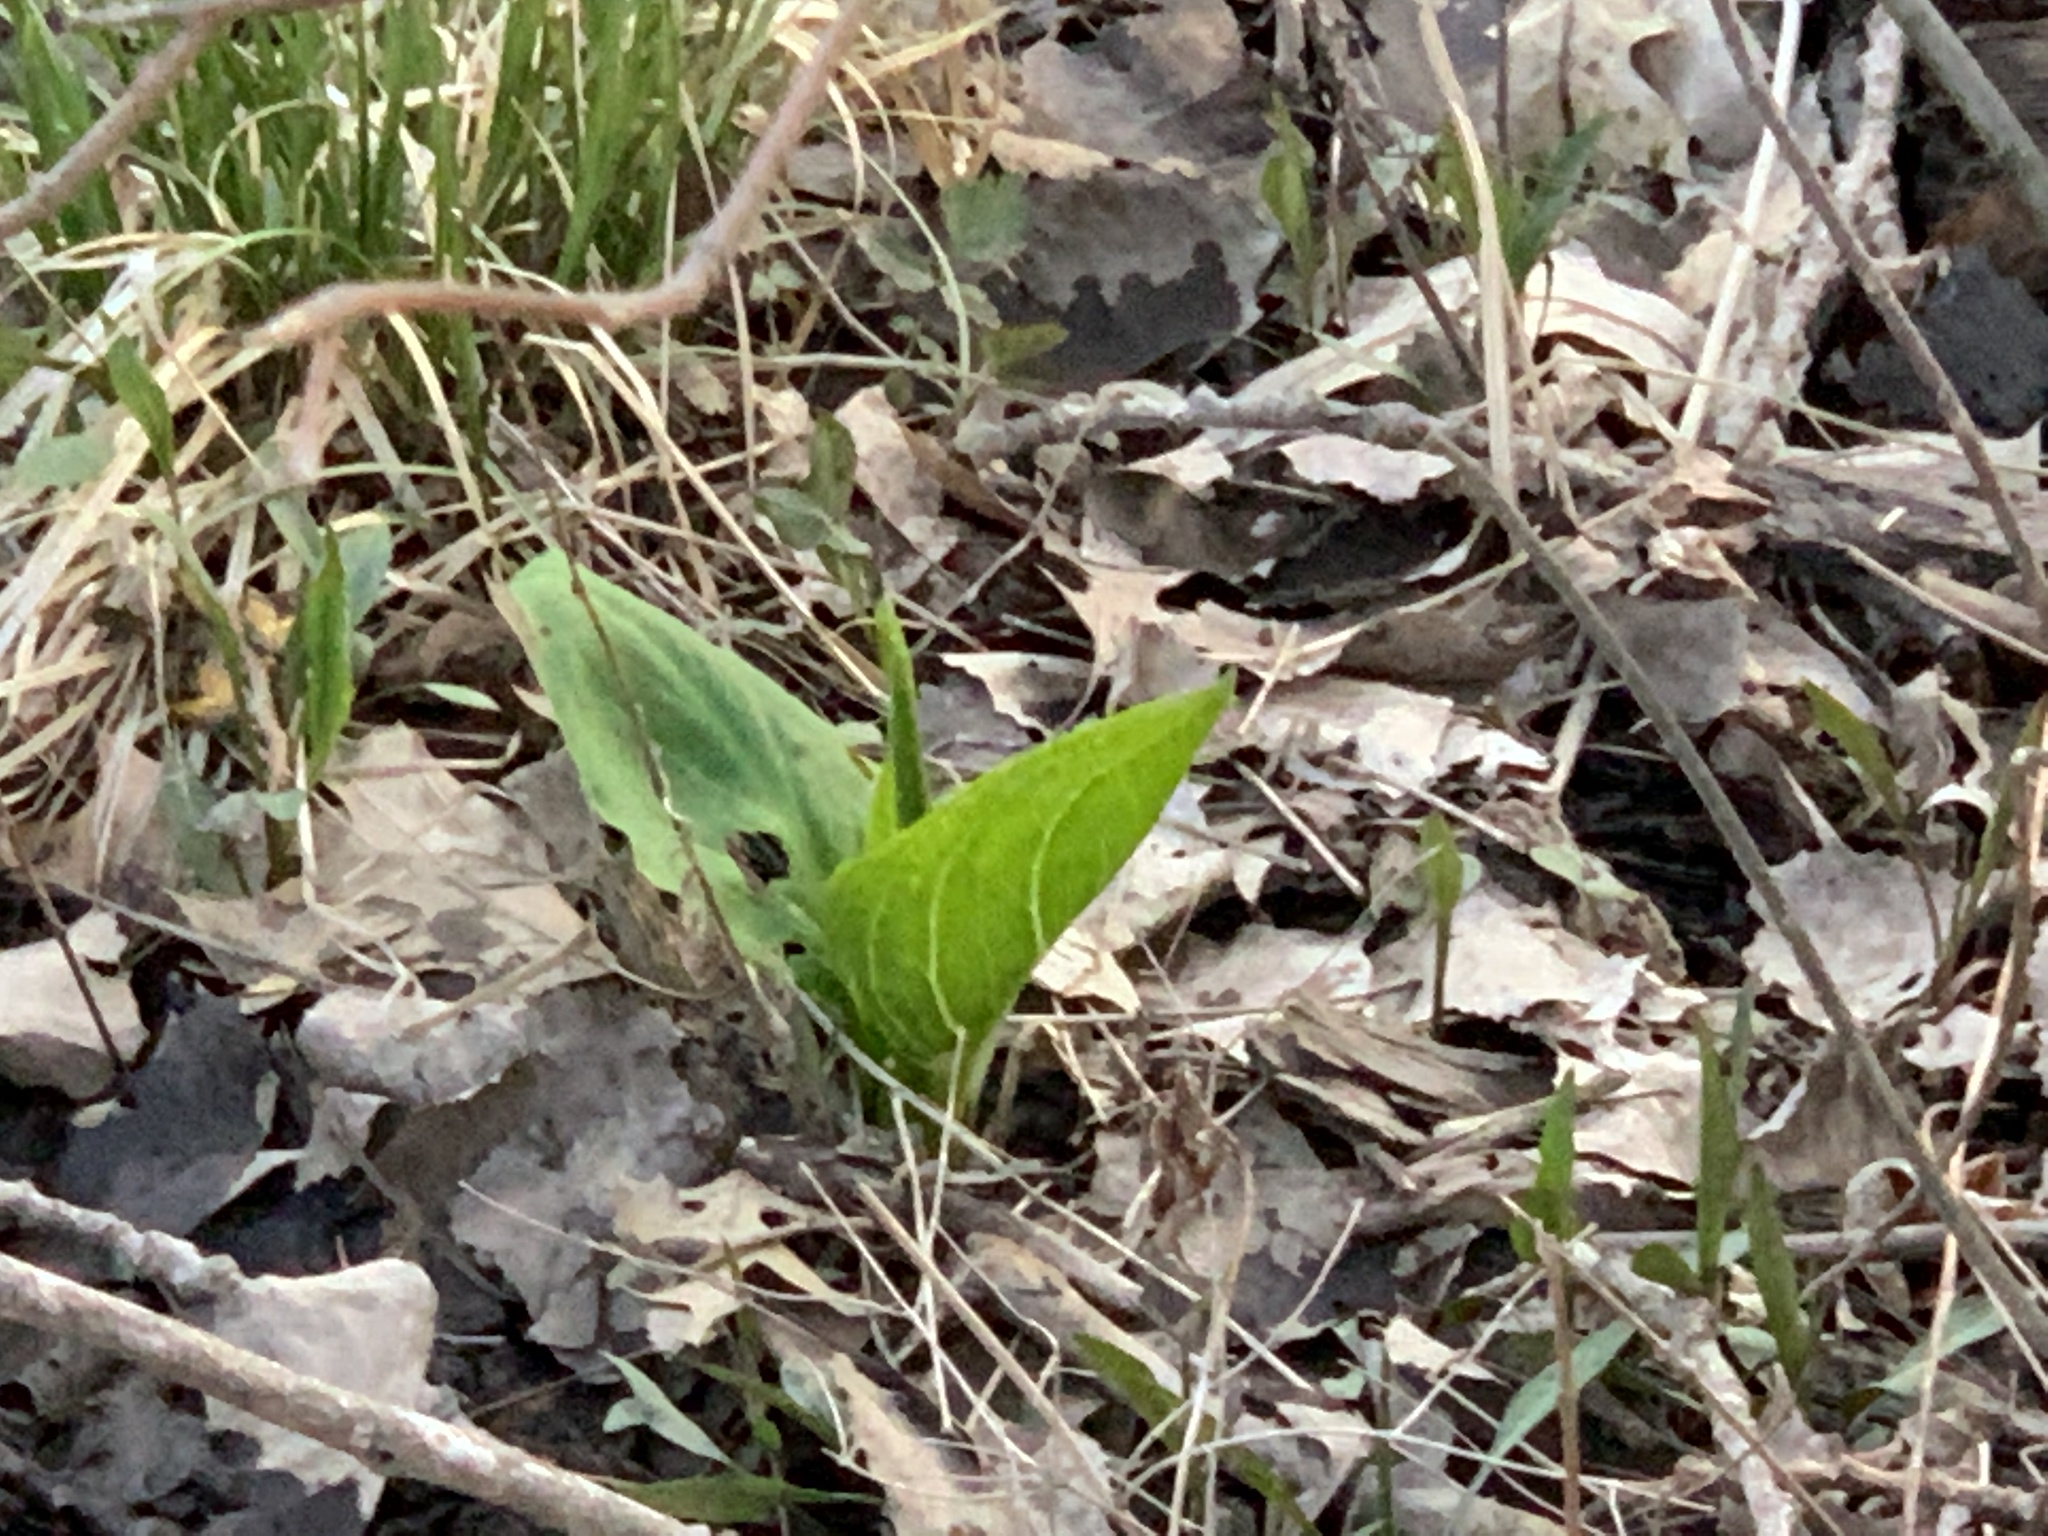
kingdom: Plantae
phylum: Tracheophyta
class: Liliopsida
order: Alismatales
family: Araceae
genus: Symplocarpus
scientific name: Symplocarpus foetidus
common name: Eastern skunk cabbage
